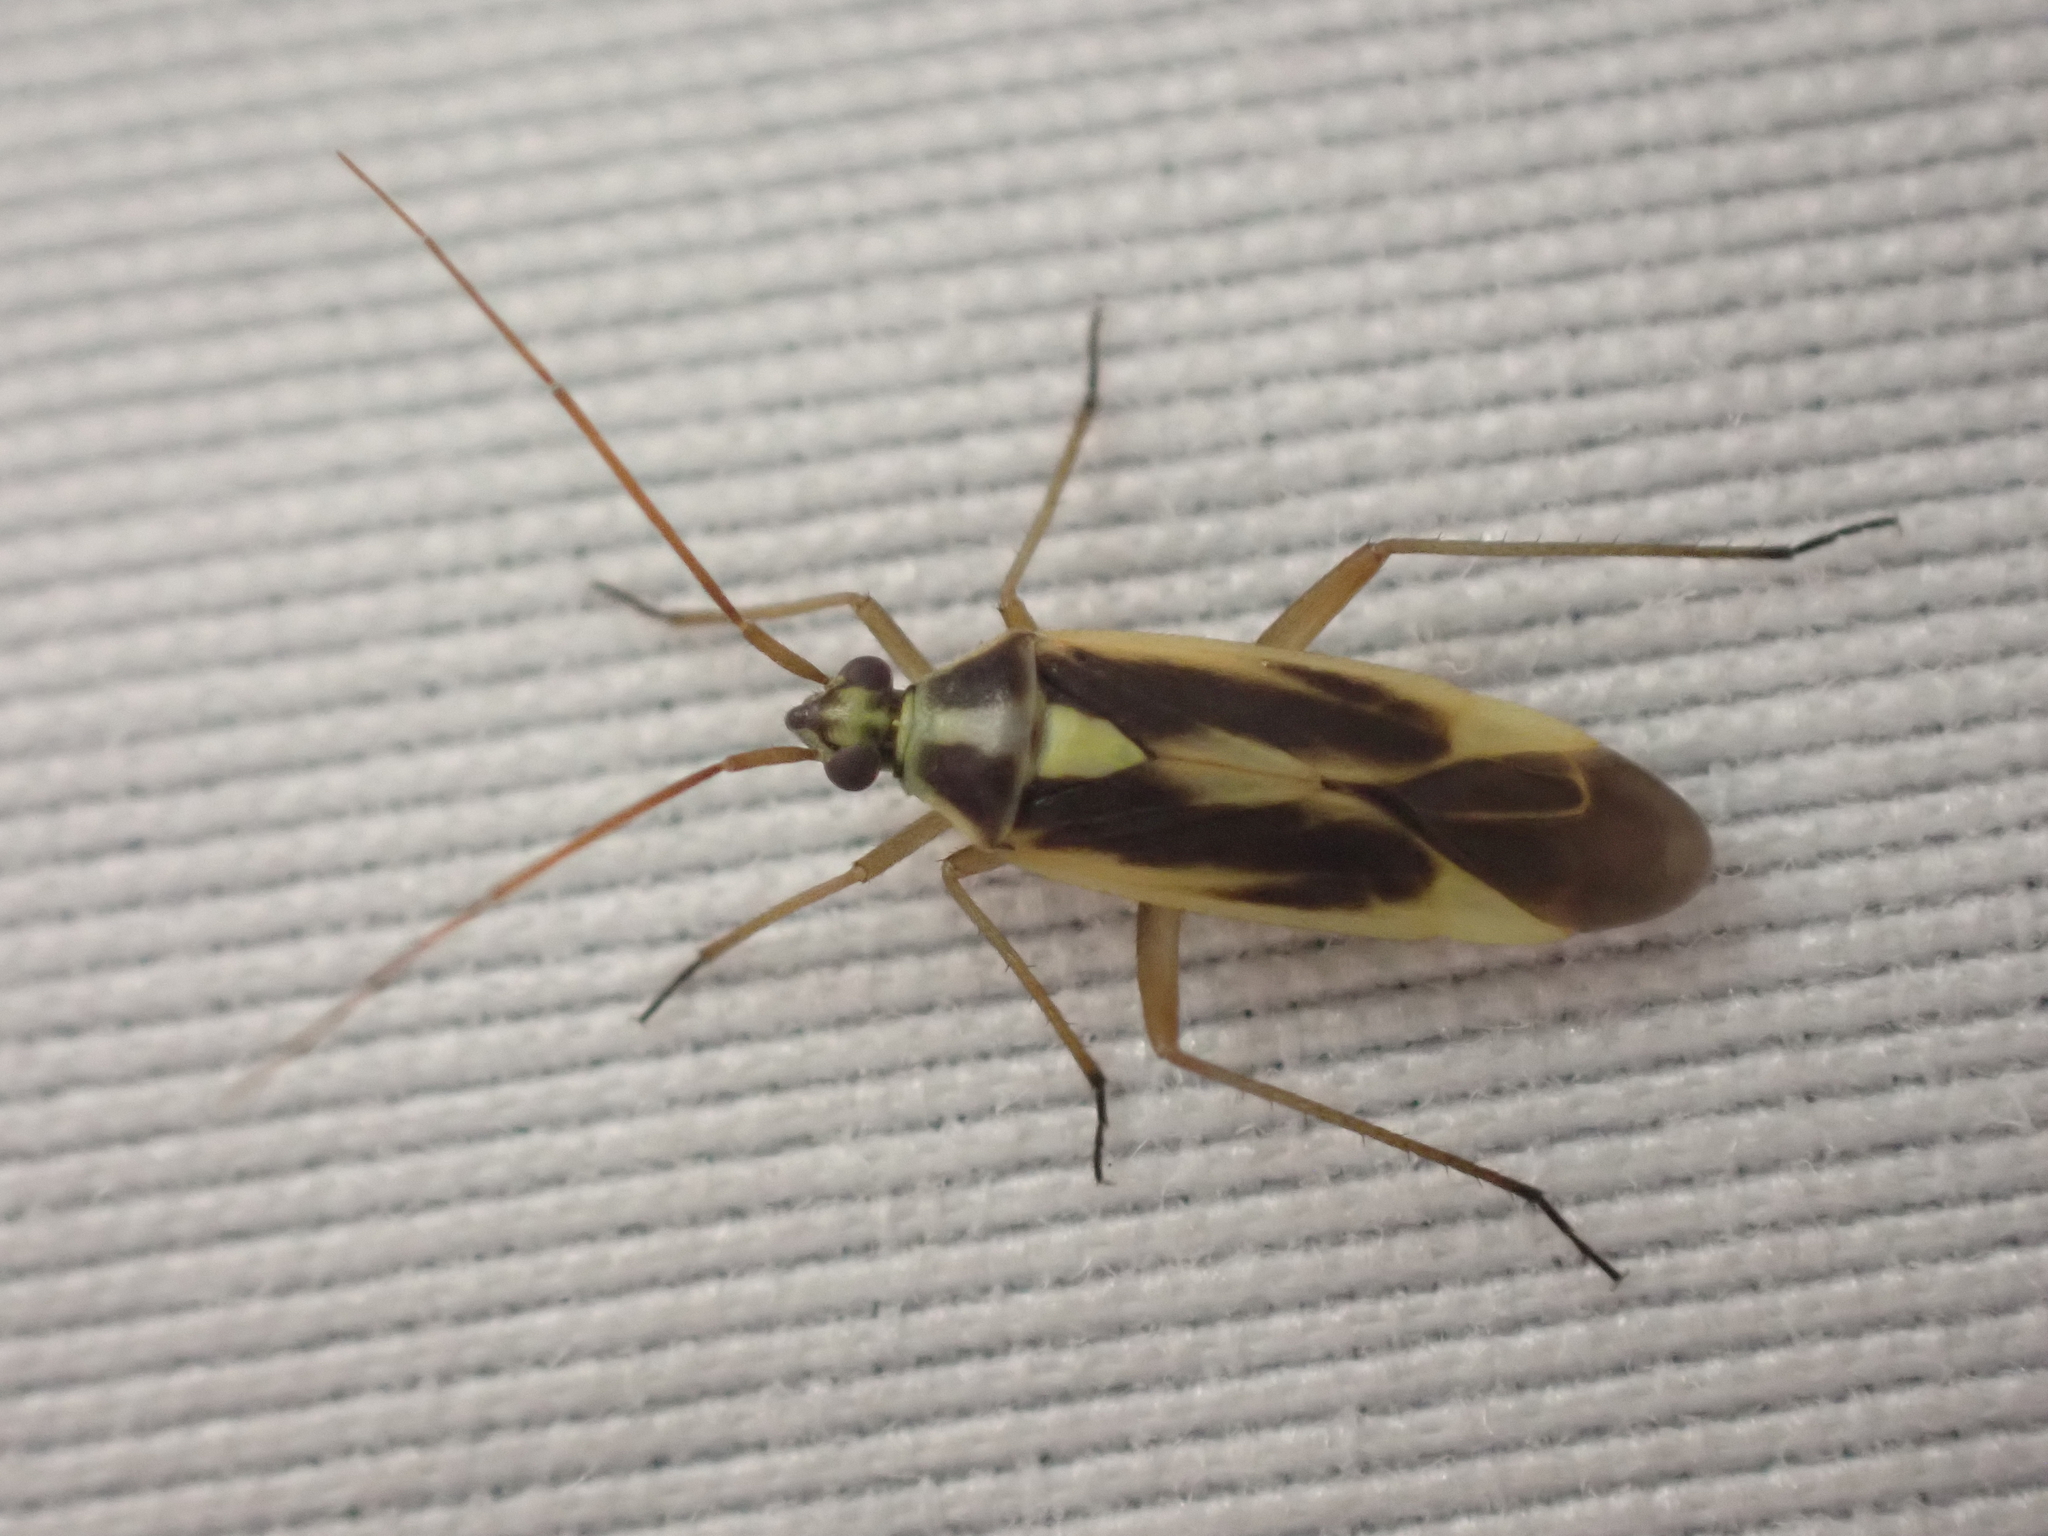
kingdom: Animalia
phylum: Arthropoda
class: Insecta
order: Hemiptera
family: Miridae
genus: Stenotus
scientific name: Stenotus binotatus
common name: Plant bug
